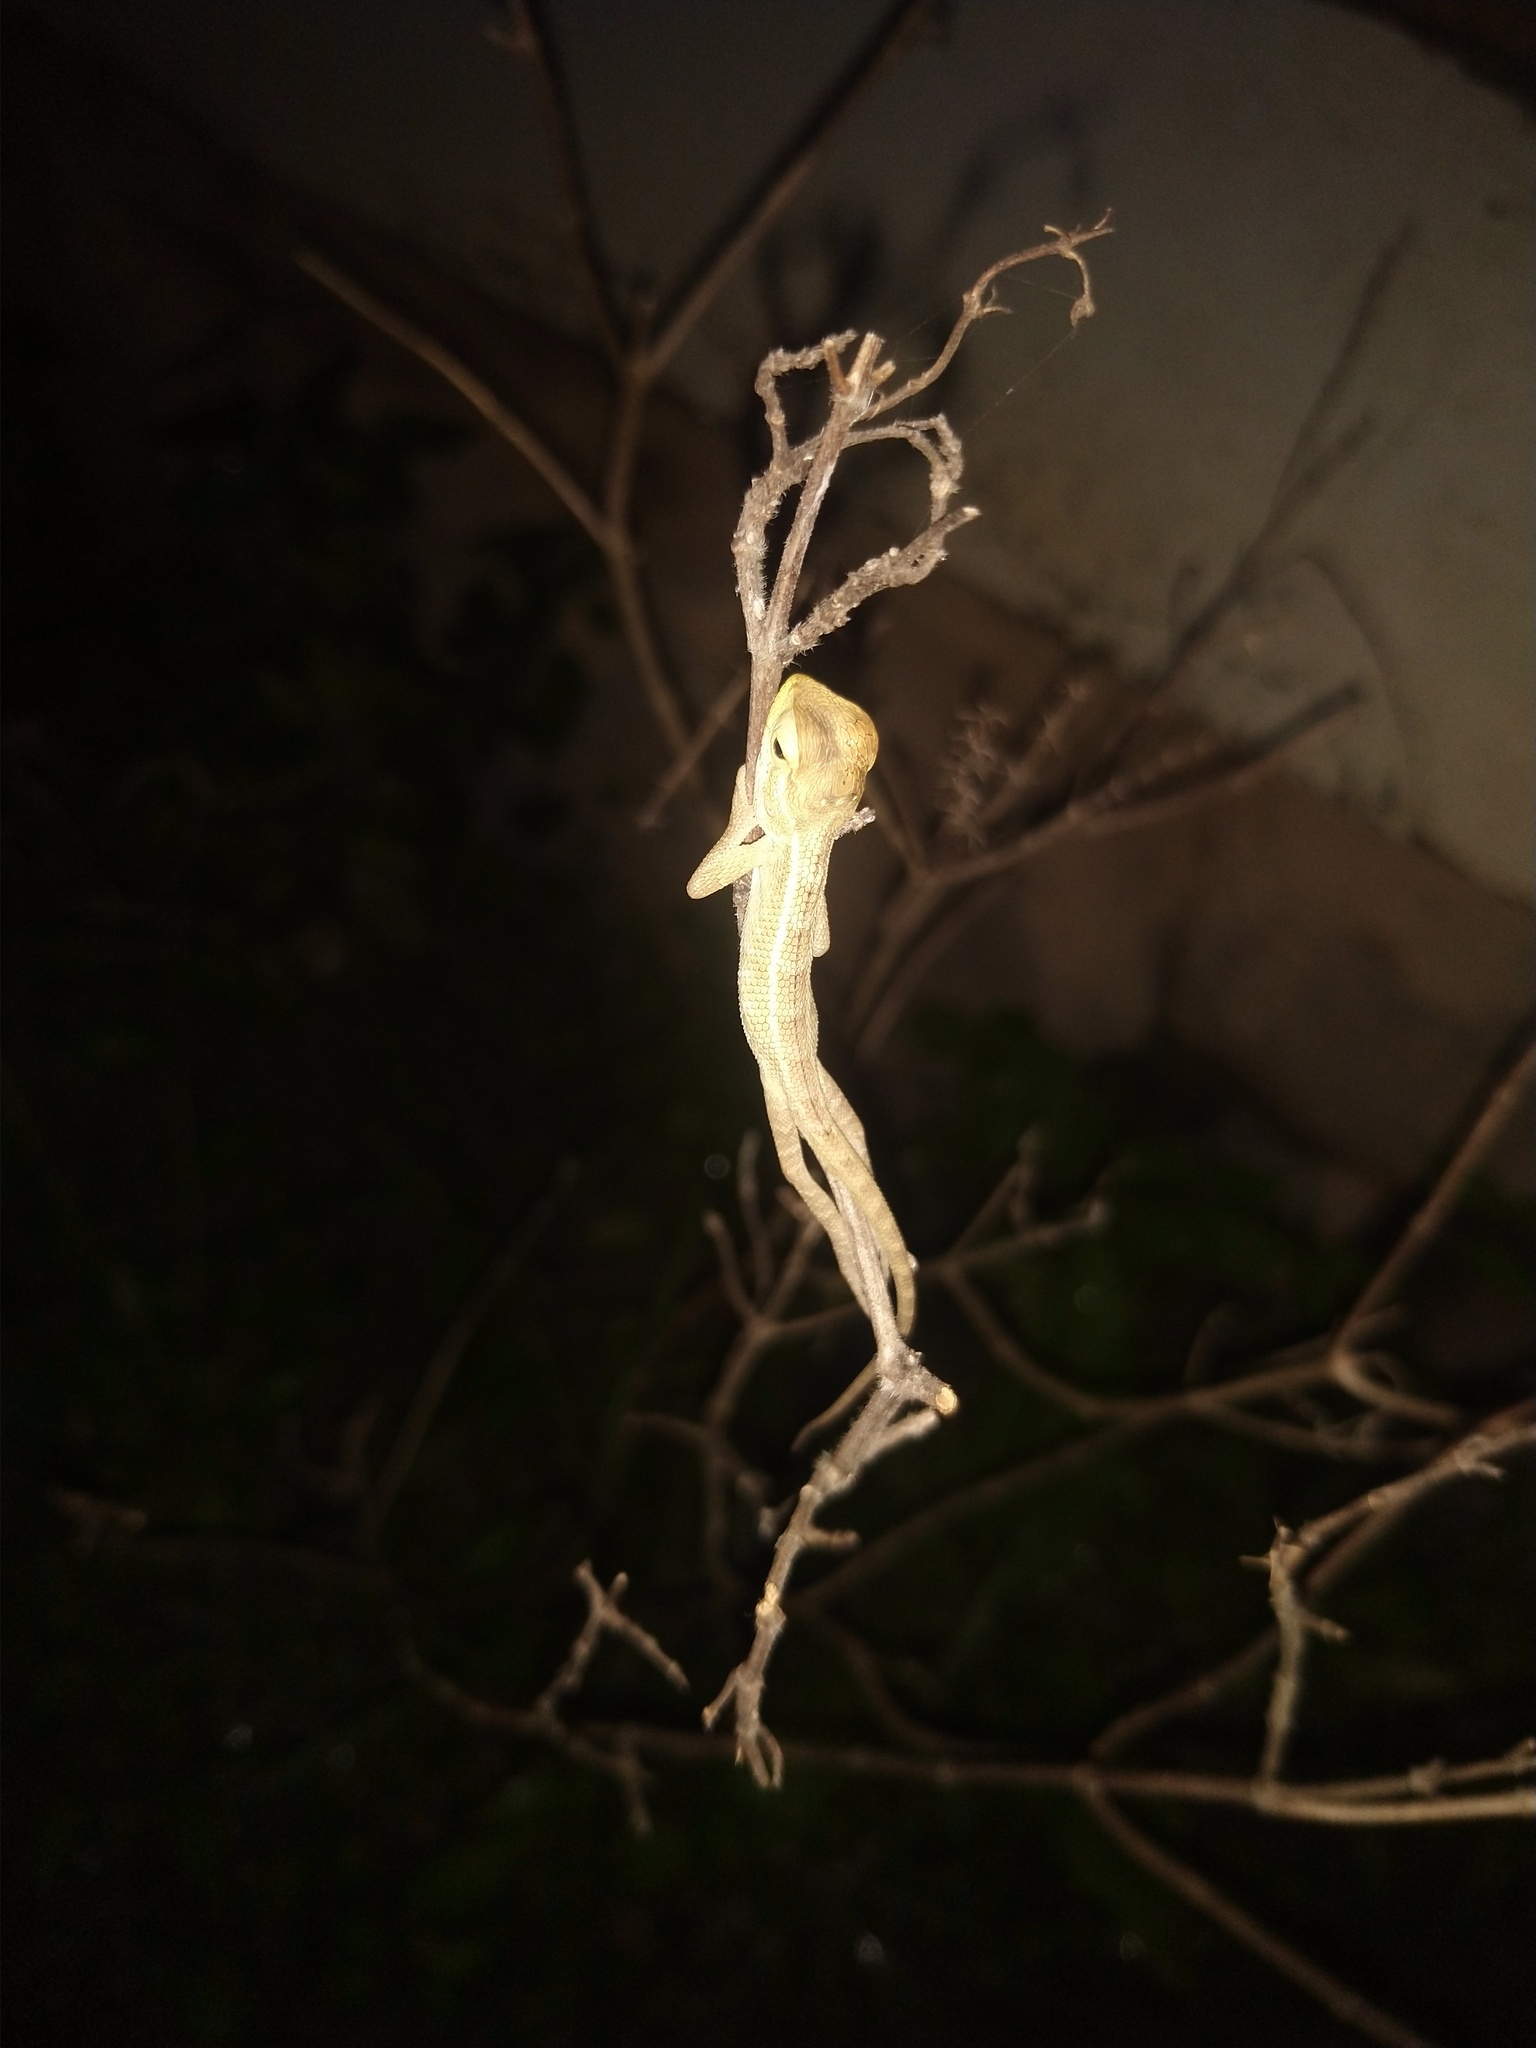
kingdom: Animalia
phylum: Chordata
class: Squamata
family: Agamidae
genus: Calotes
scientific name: Calotes versicolor
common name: Oriental garden lizard
